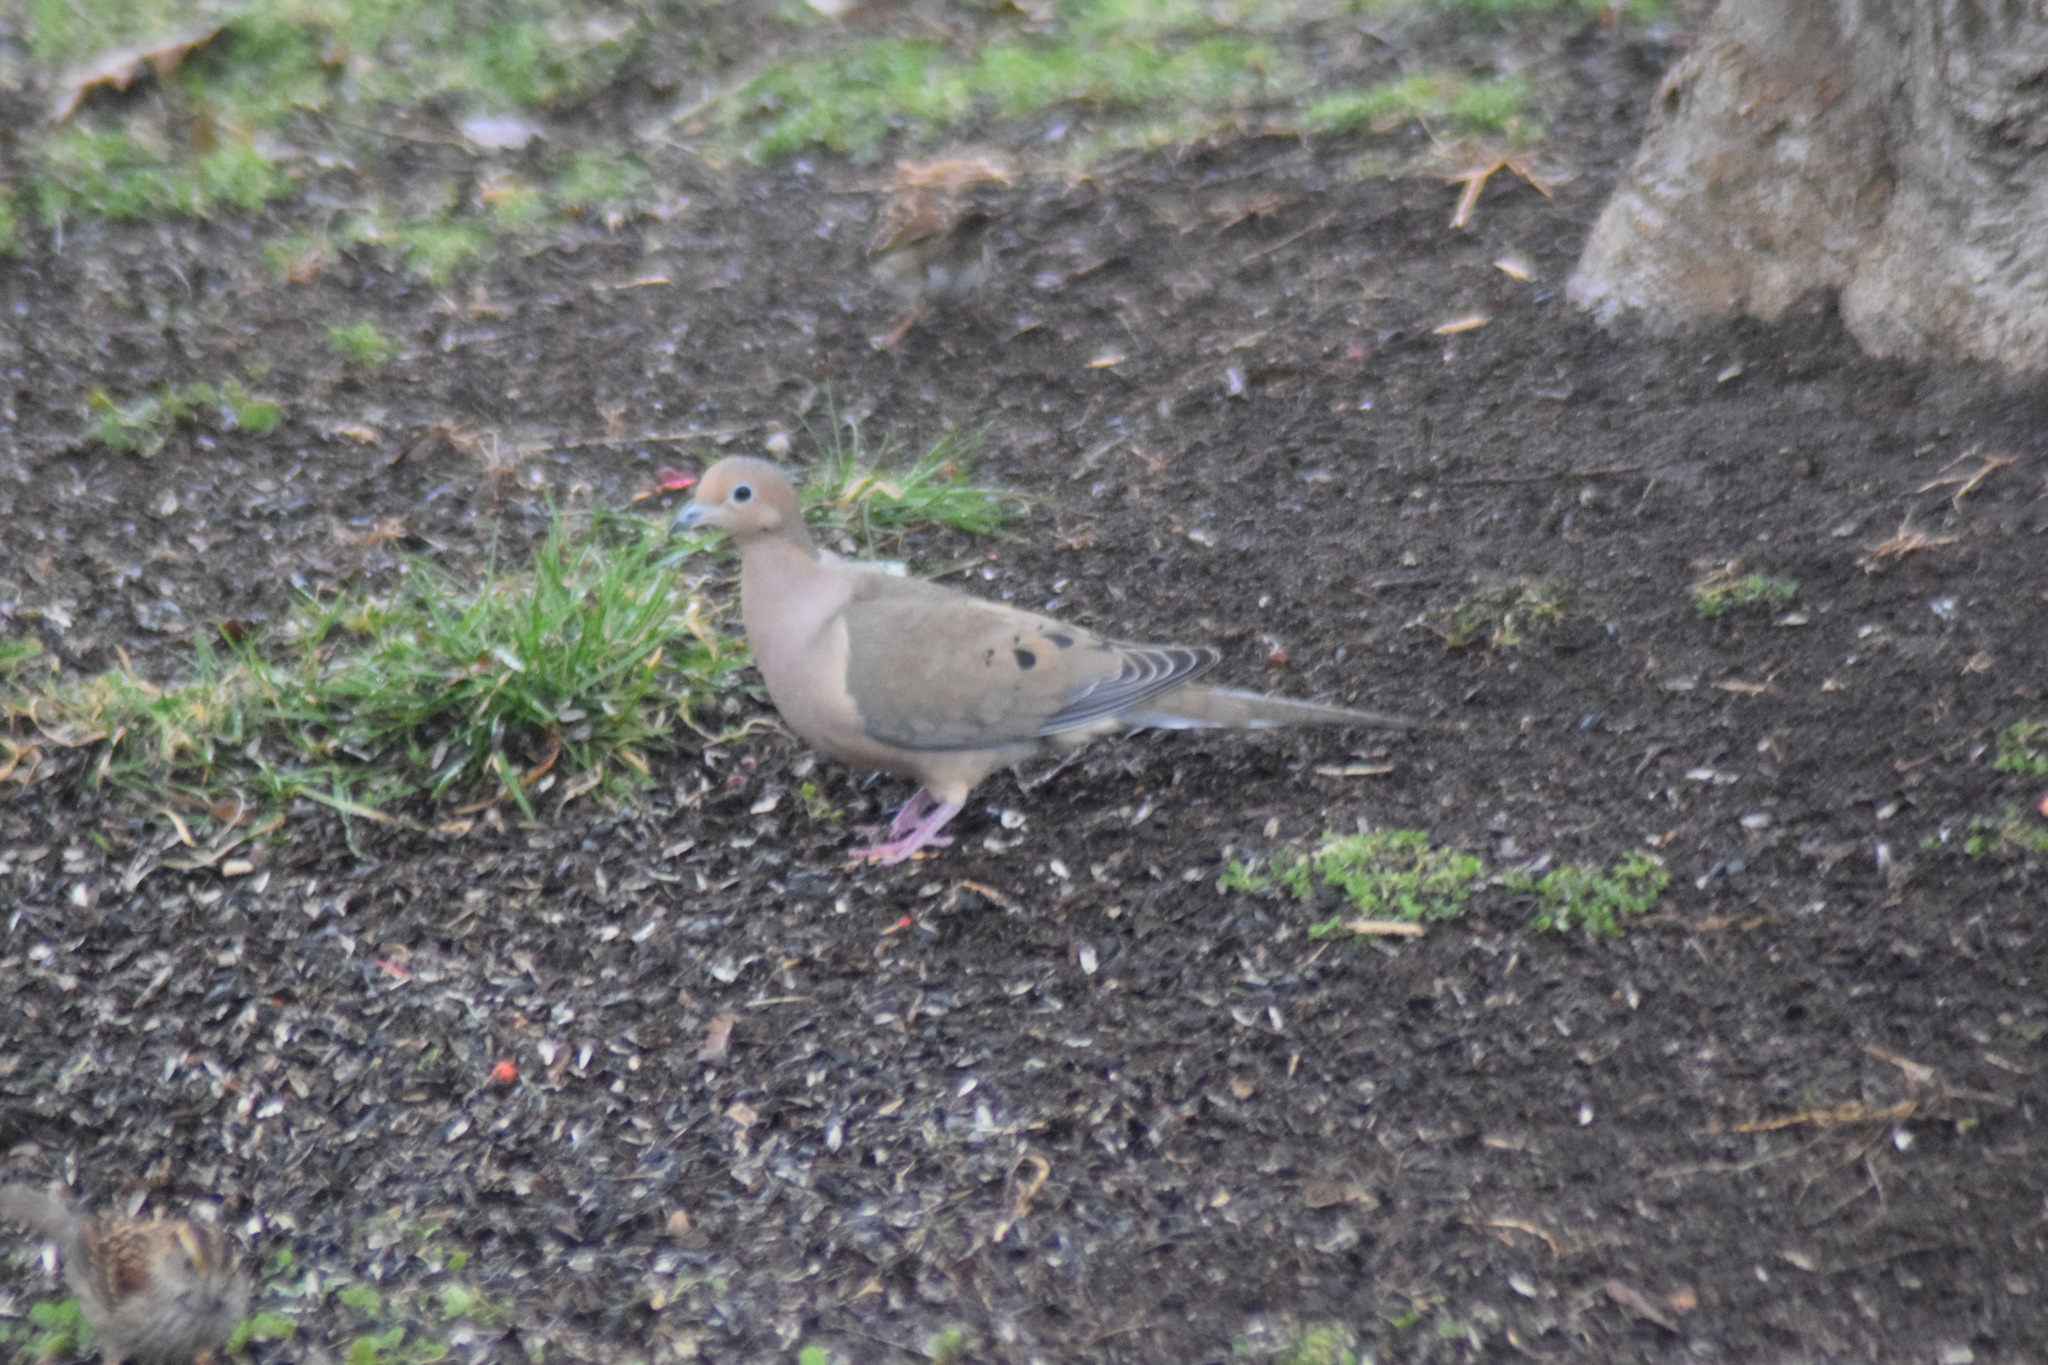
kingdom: Animalia
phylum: Chordata
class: Aves
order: Columbiformes
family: Columbidae
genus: Zenaida
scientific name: Zenaida macroura
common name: Mourning dove
